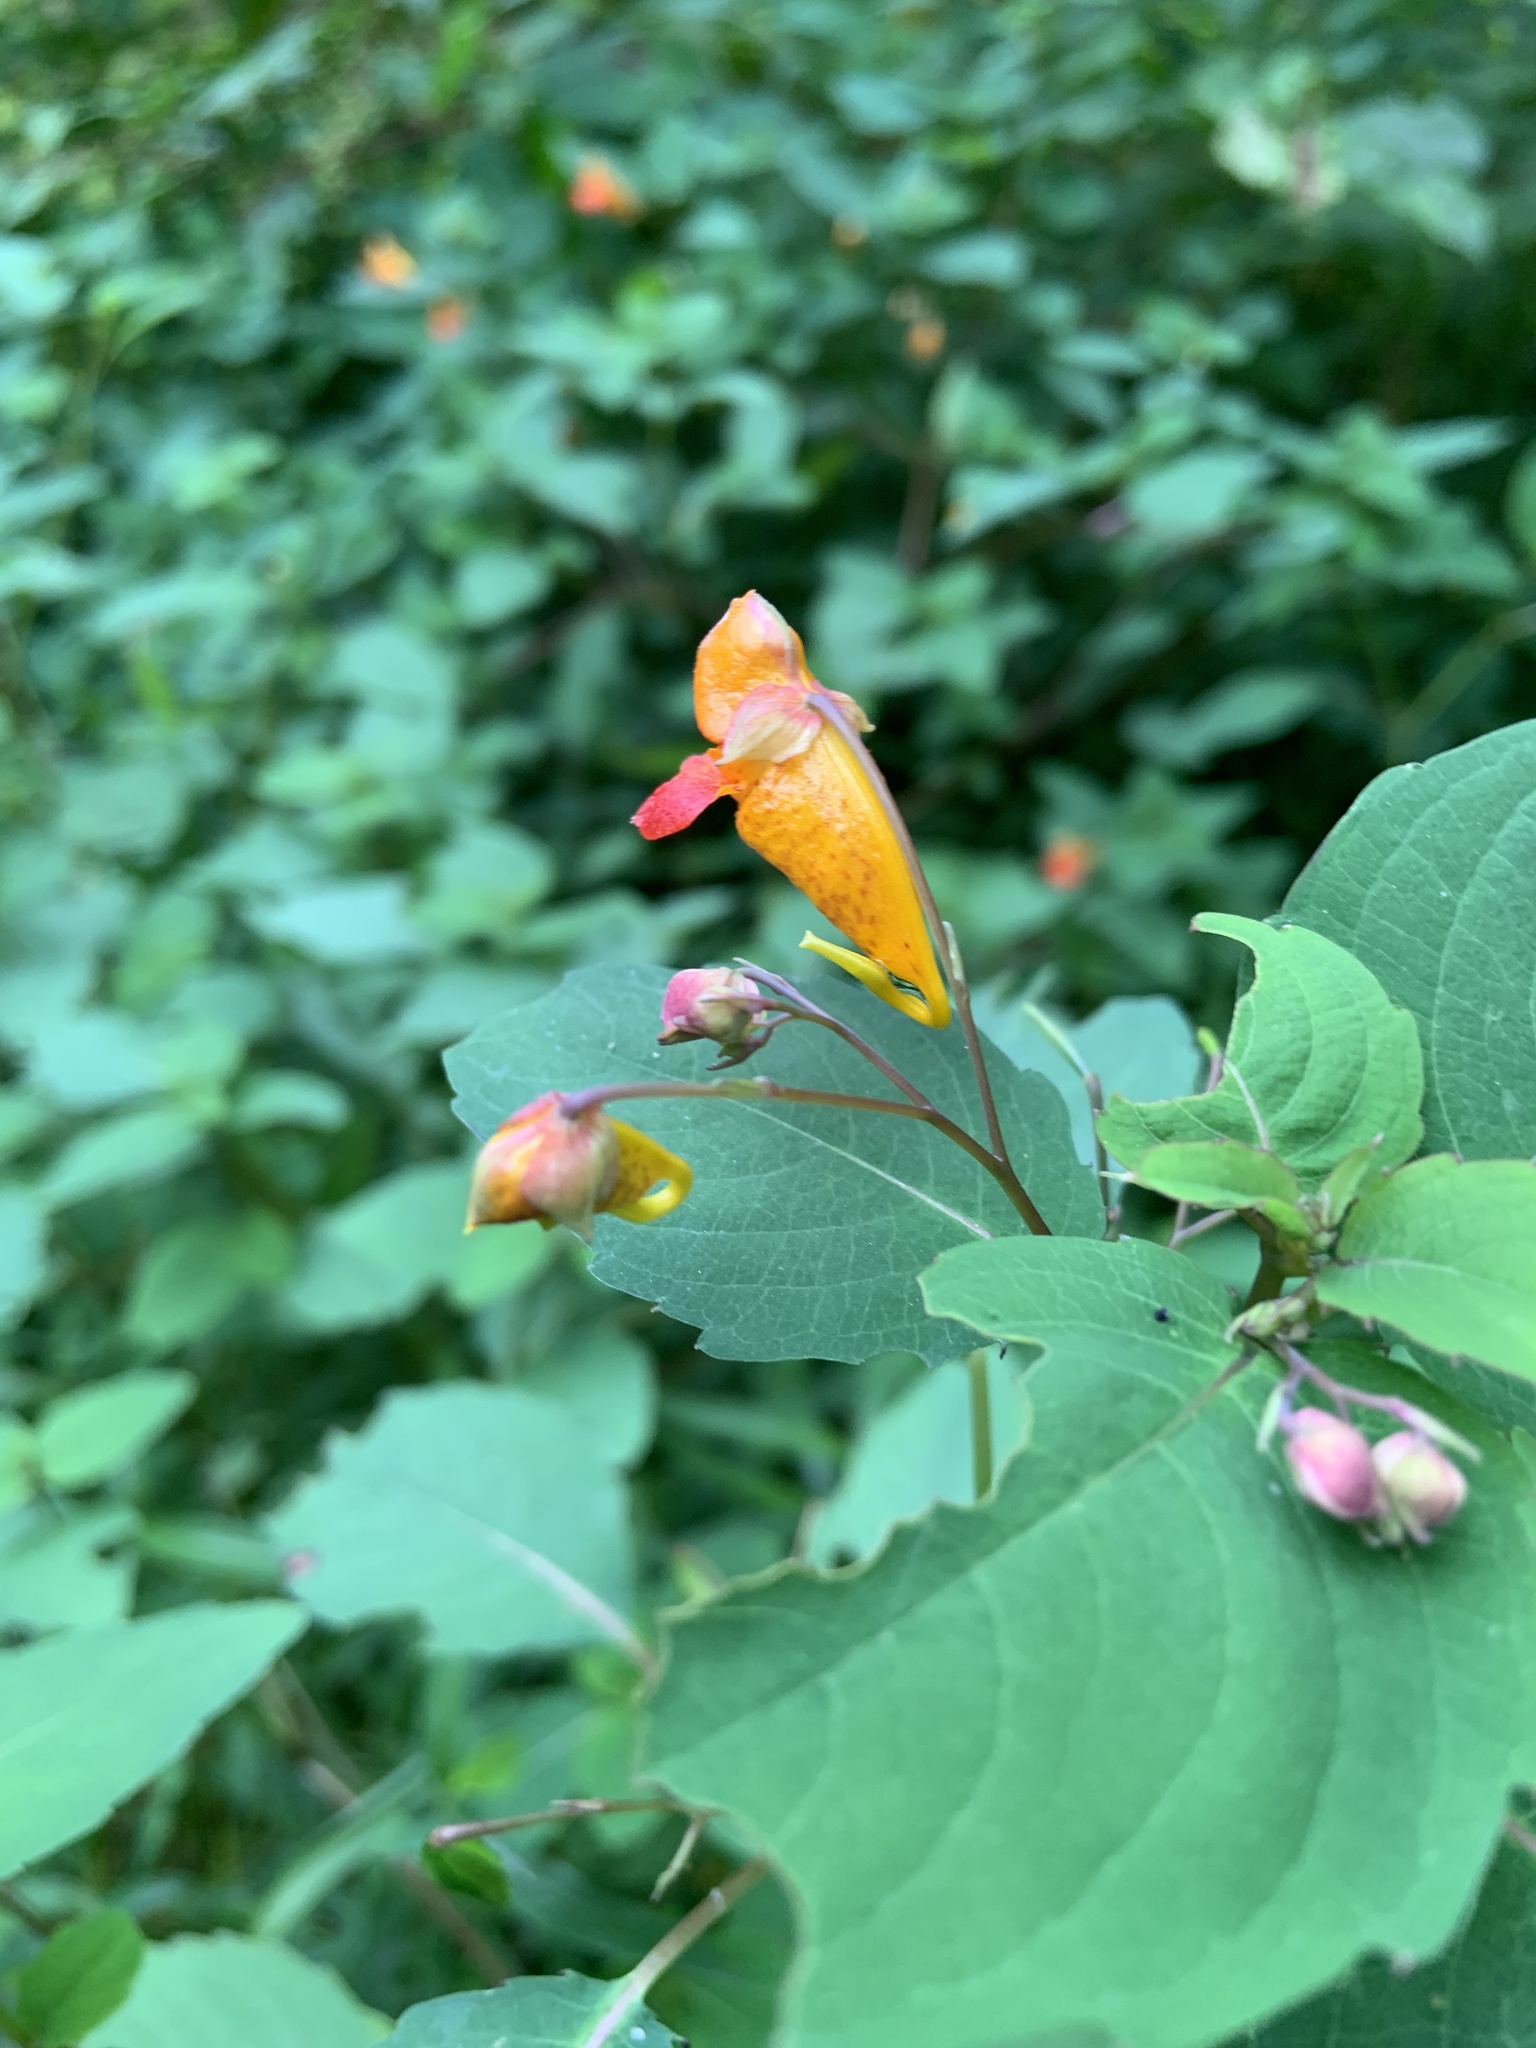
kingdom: Plantae
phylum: Tracheophyta
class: Magnoliopsida
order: Ericales
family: Balsaminaceae
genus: Impatiens
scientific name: Impatiens capensis
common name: Orange balsam
